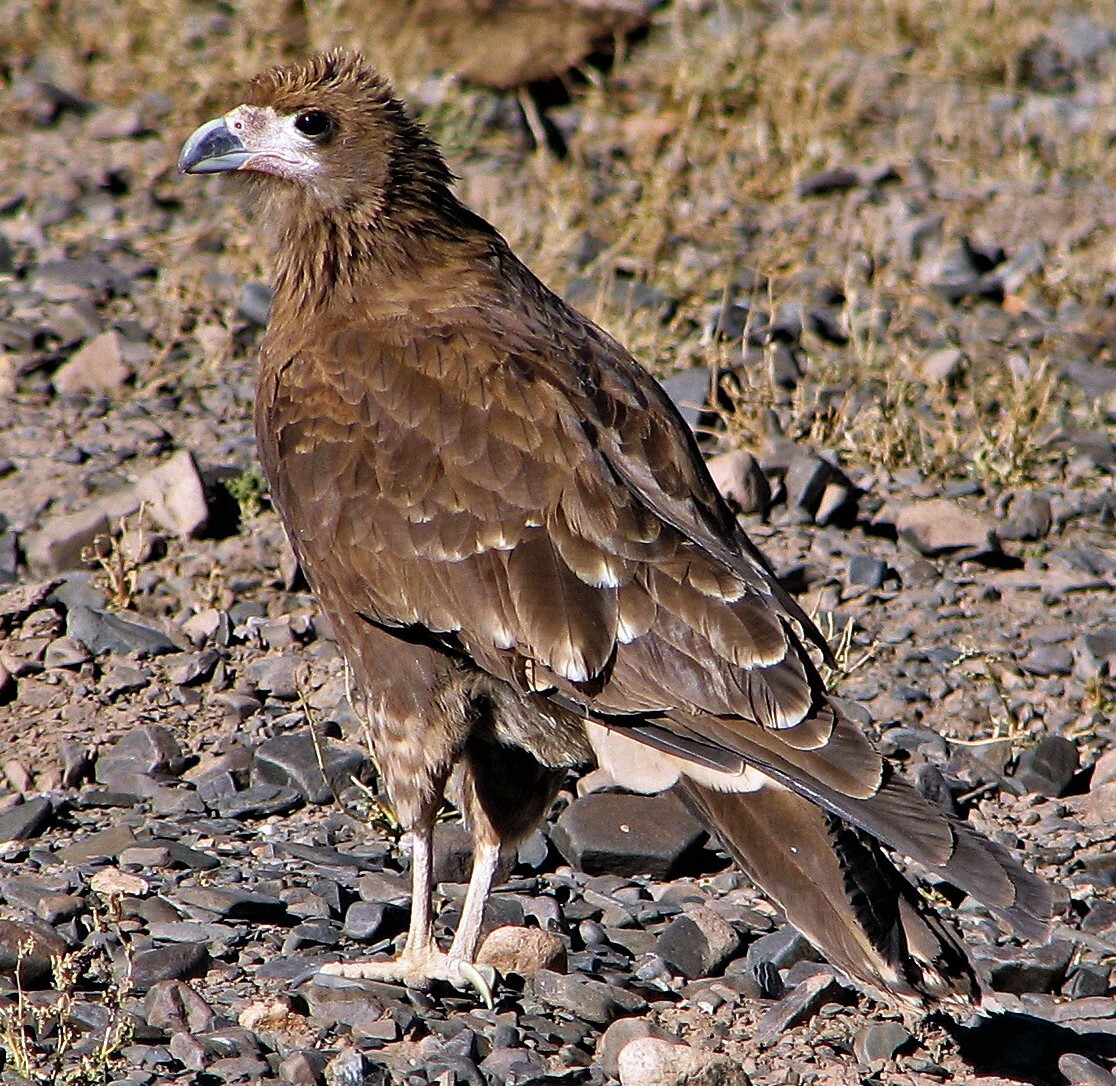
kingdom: Animalia
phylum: Chordata
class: Aves
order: Falconiformes
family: Falconidae
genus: Daptrius
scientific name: Daptrius
